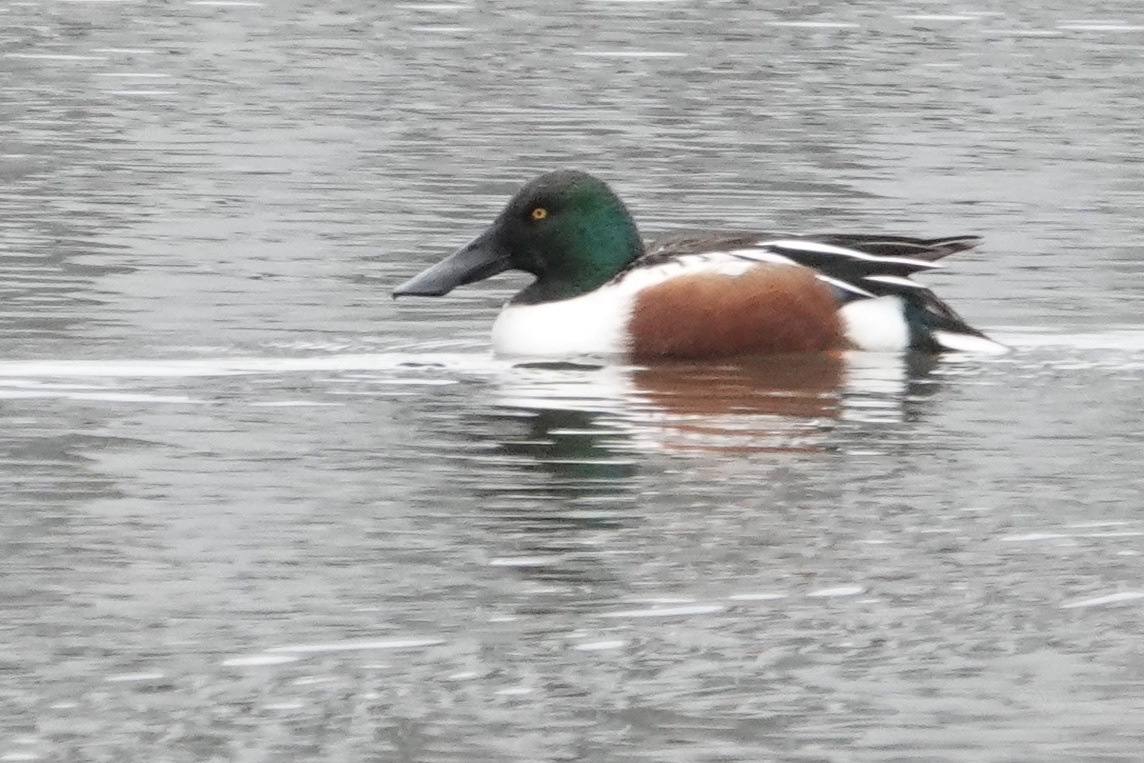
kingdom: Animalia
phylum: Chordata
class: Aves
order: Anseriformes
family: Anatidae
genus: Spatula
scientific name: Spatula clypeata
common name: Northern shoveler
